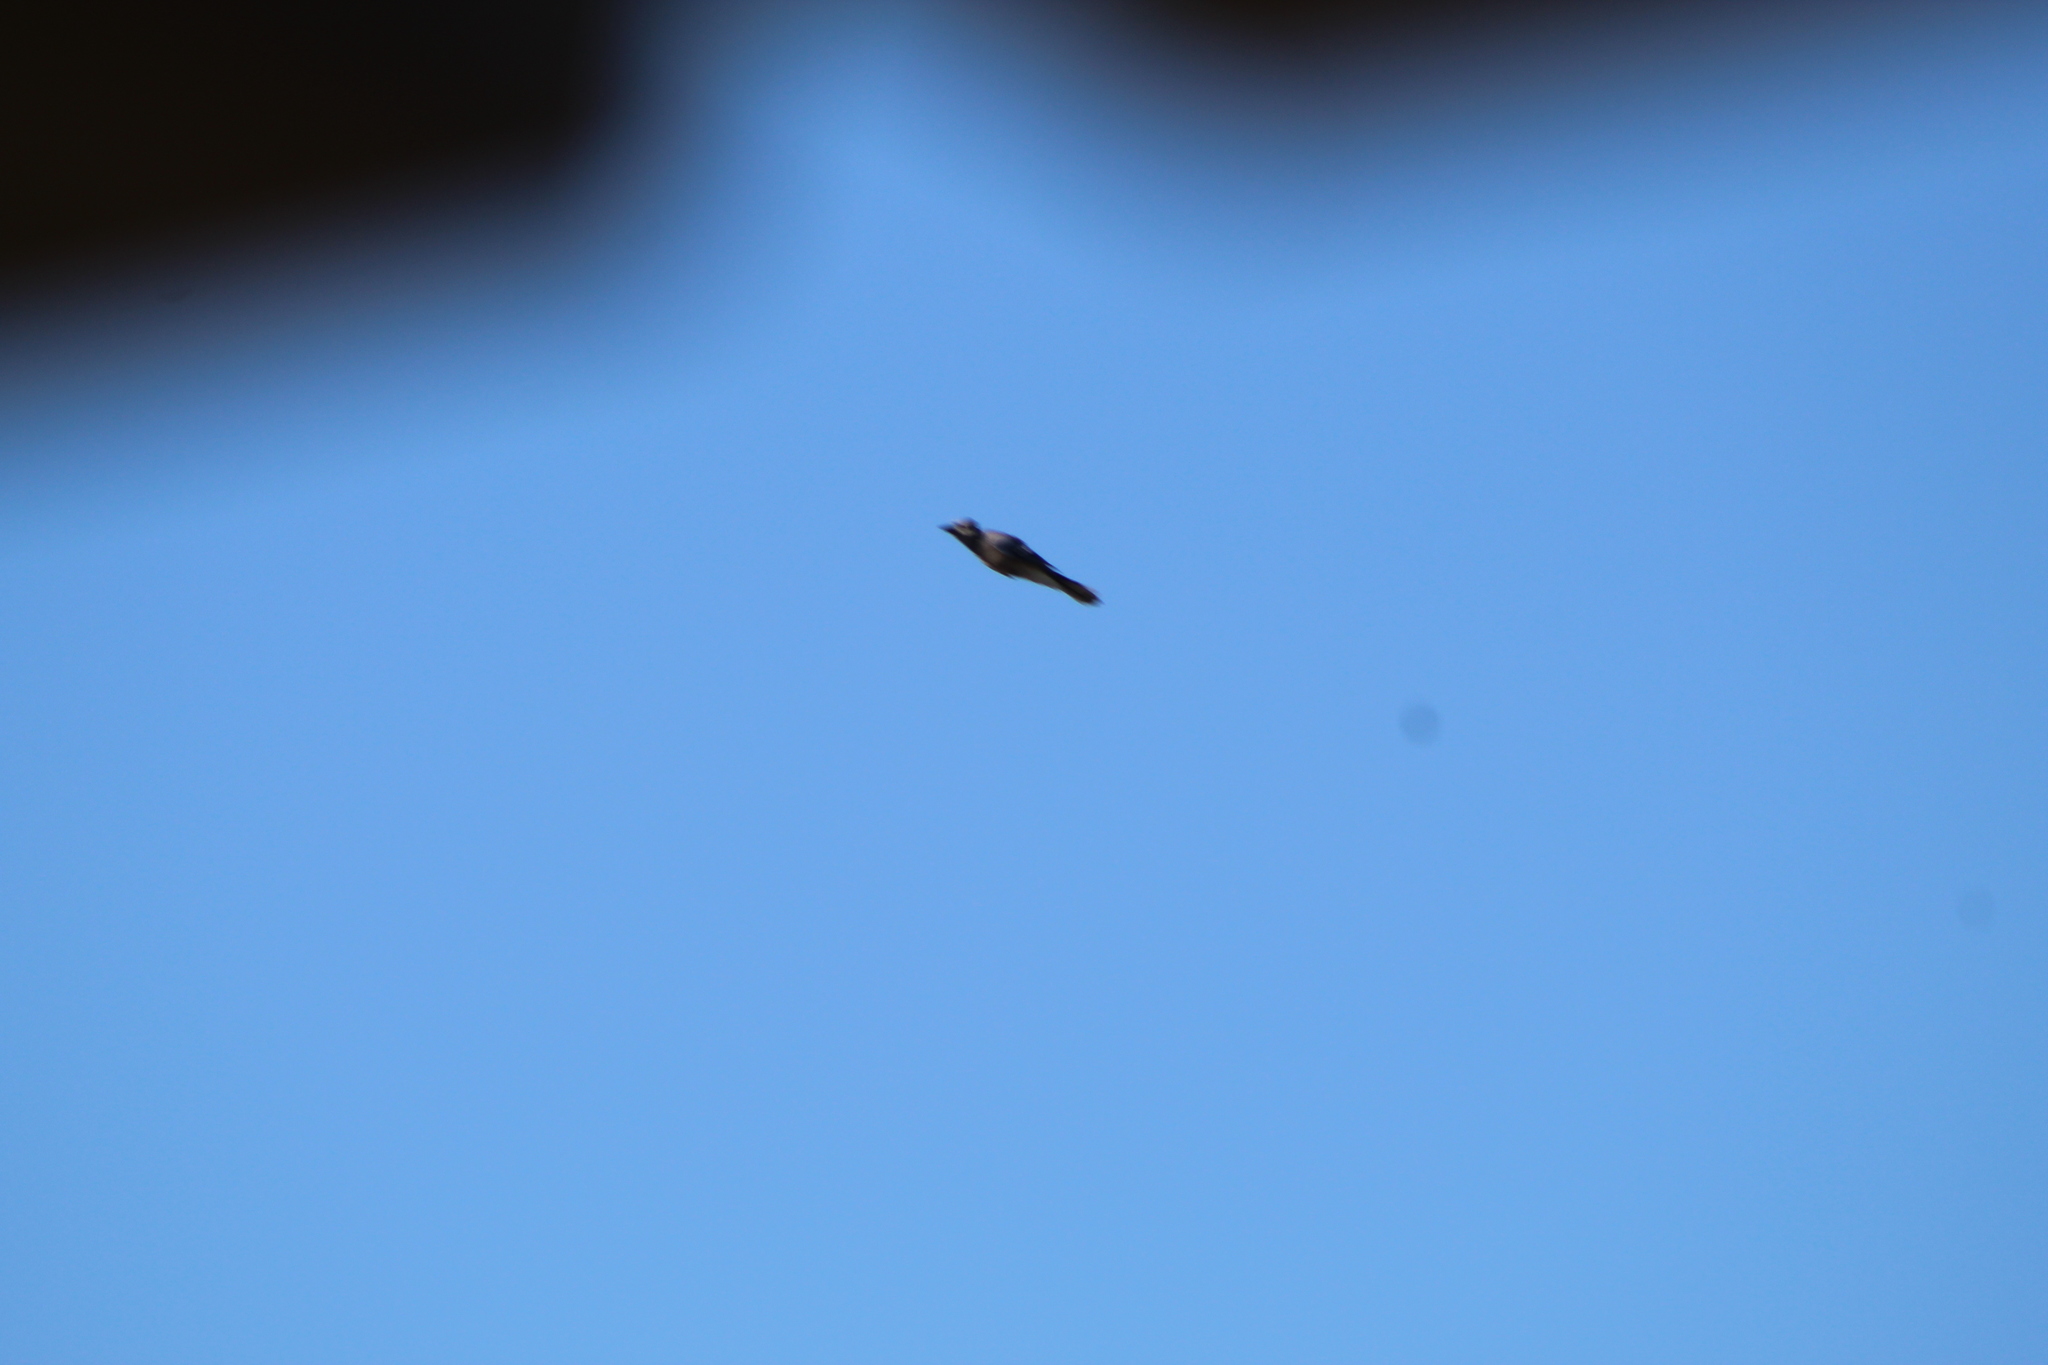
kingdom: Animalia
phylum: Chordata
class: Aves
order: Passeriformes
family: Corvidae
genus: Cyanocitta
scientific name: Cyanocitta cristata
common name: Blue jay
